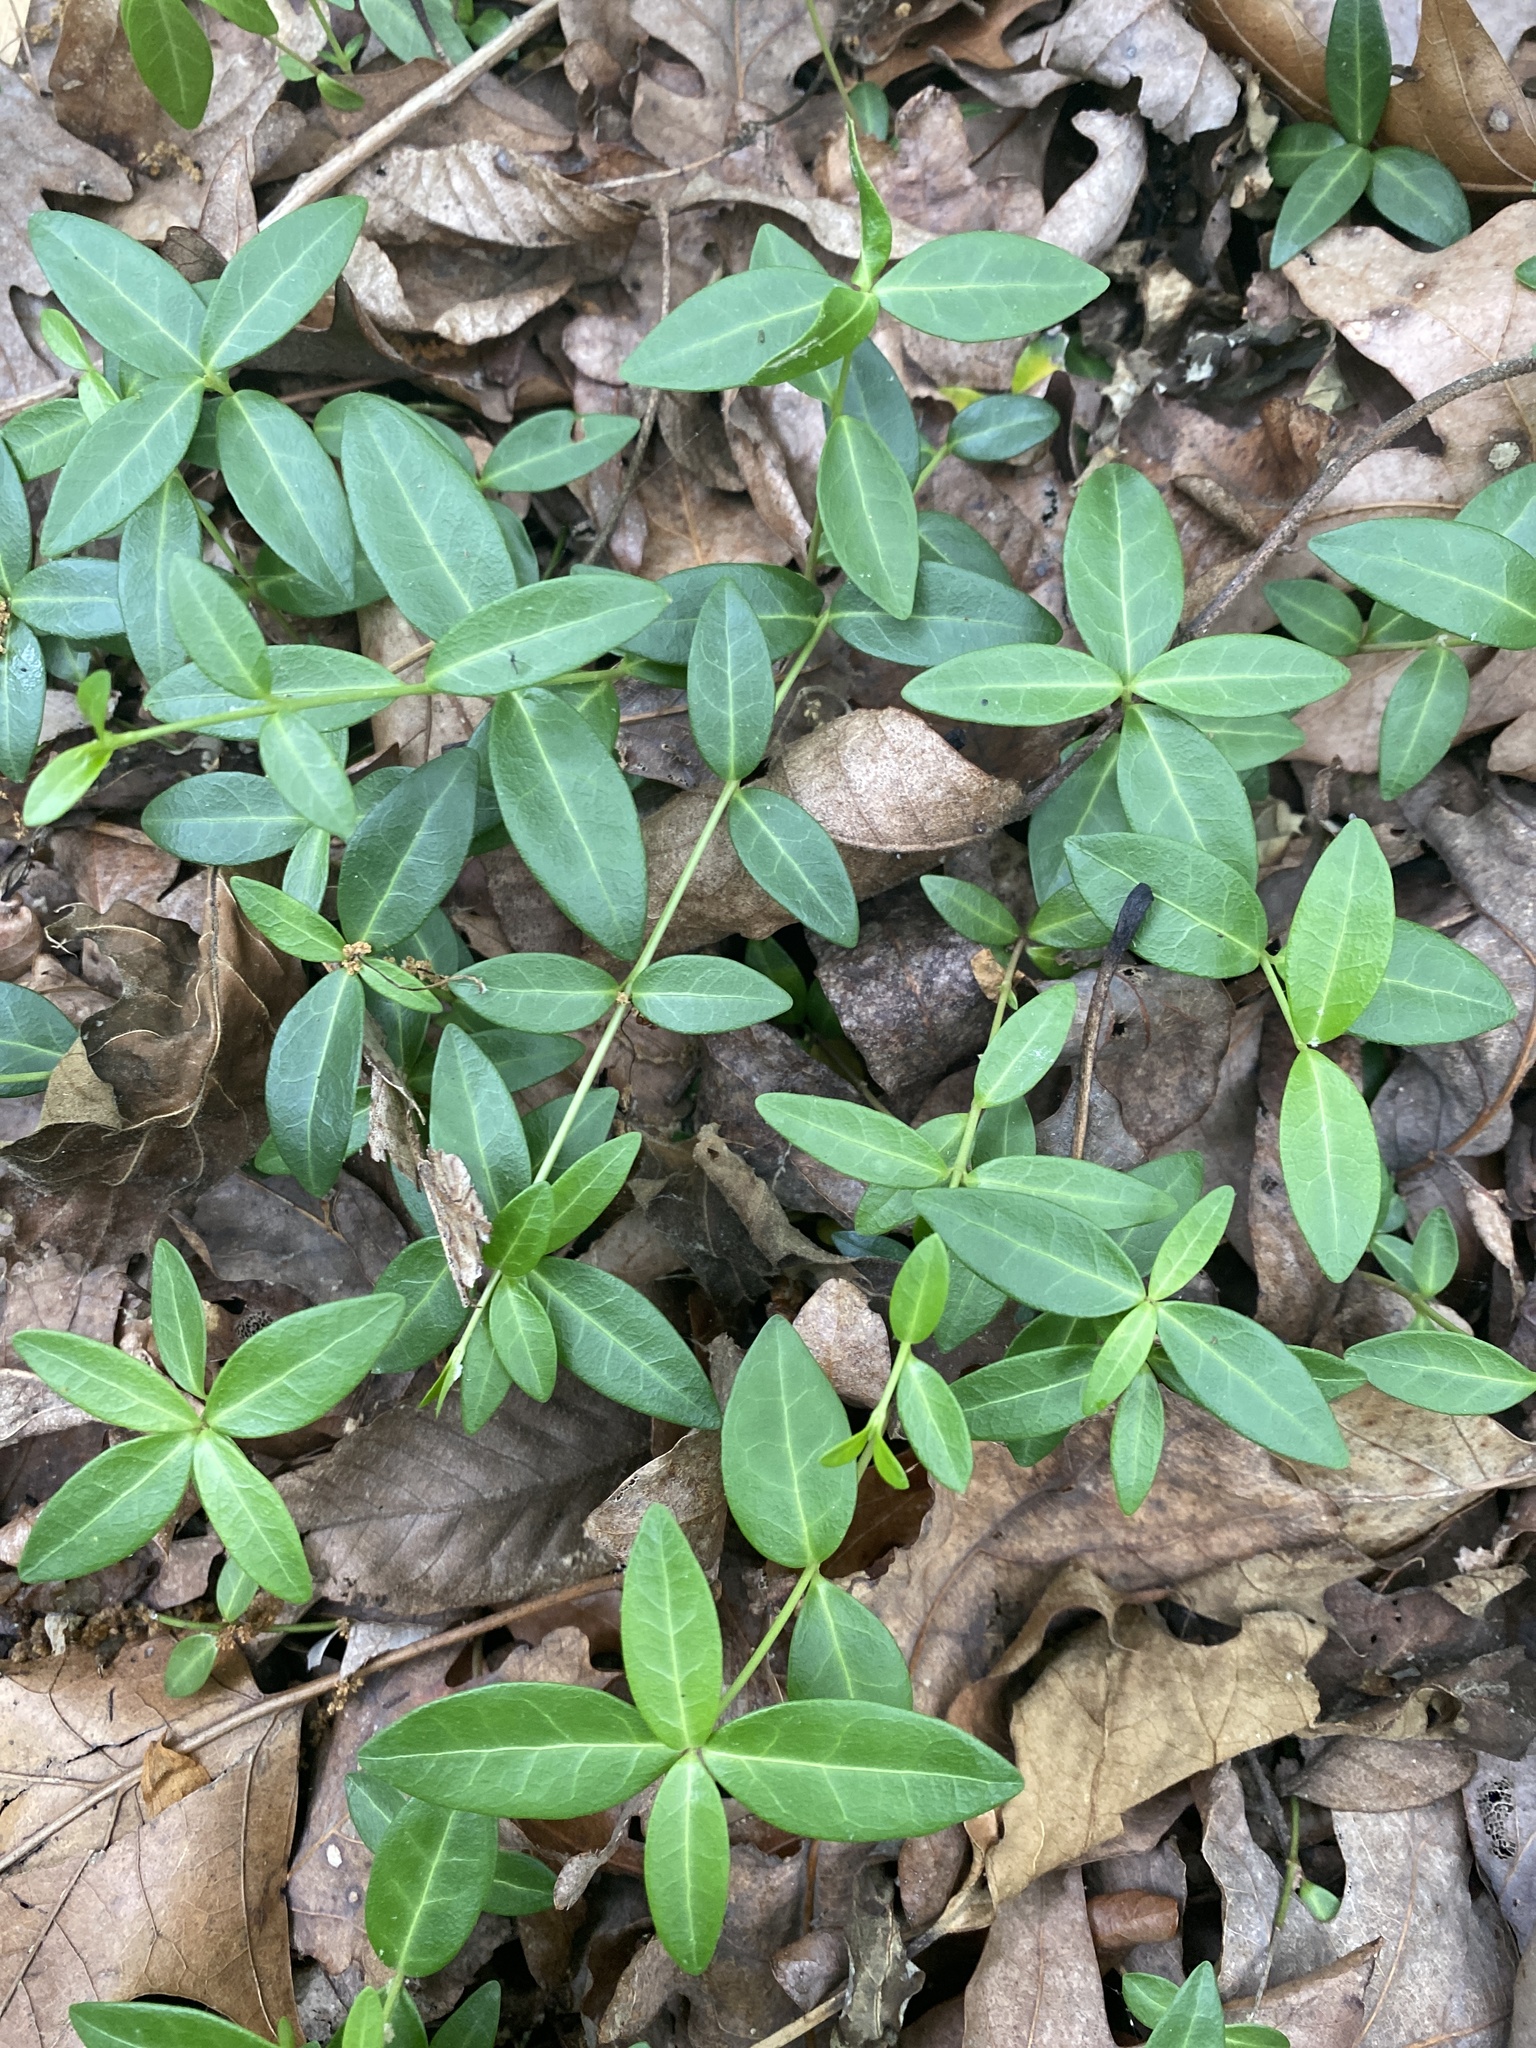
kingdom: Plantae
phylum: Tracheophyta
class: Magnoliopsida
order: Gentianales
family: Apocynaceae
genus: Vinca
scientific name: Vinca minor
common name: Lesser periwinkle
